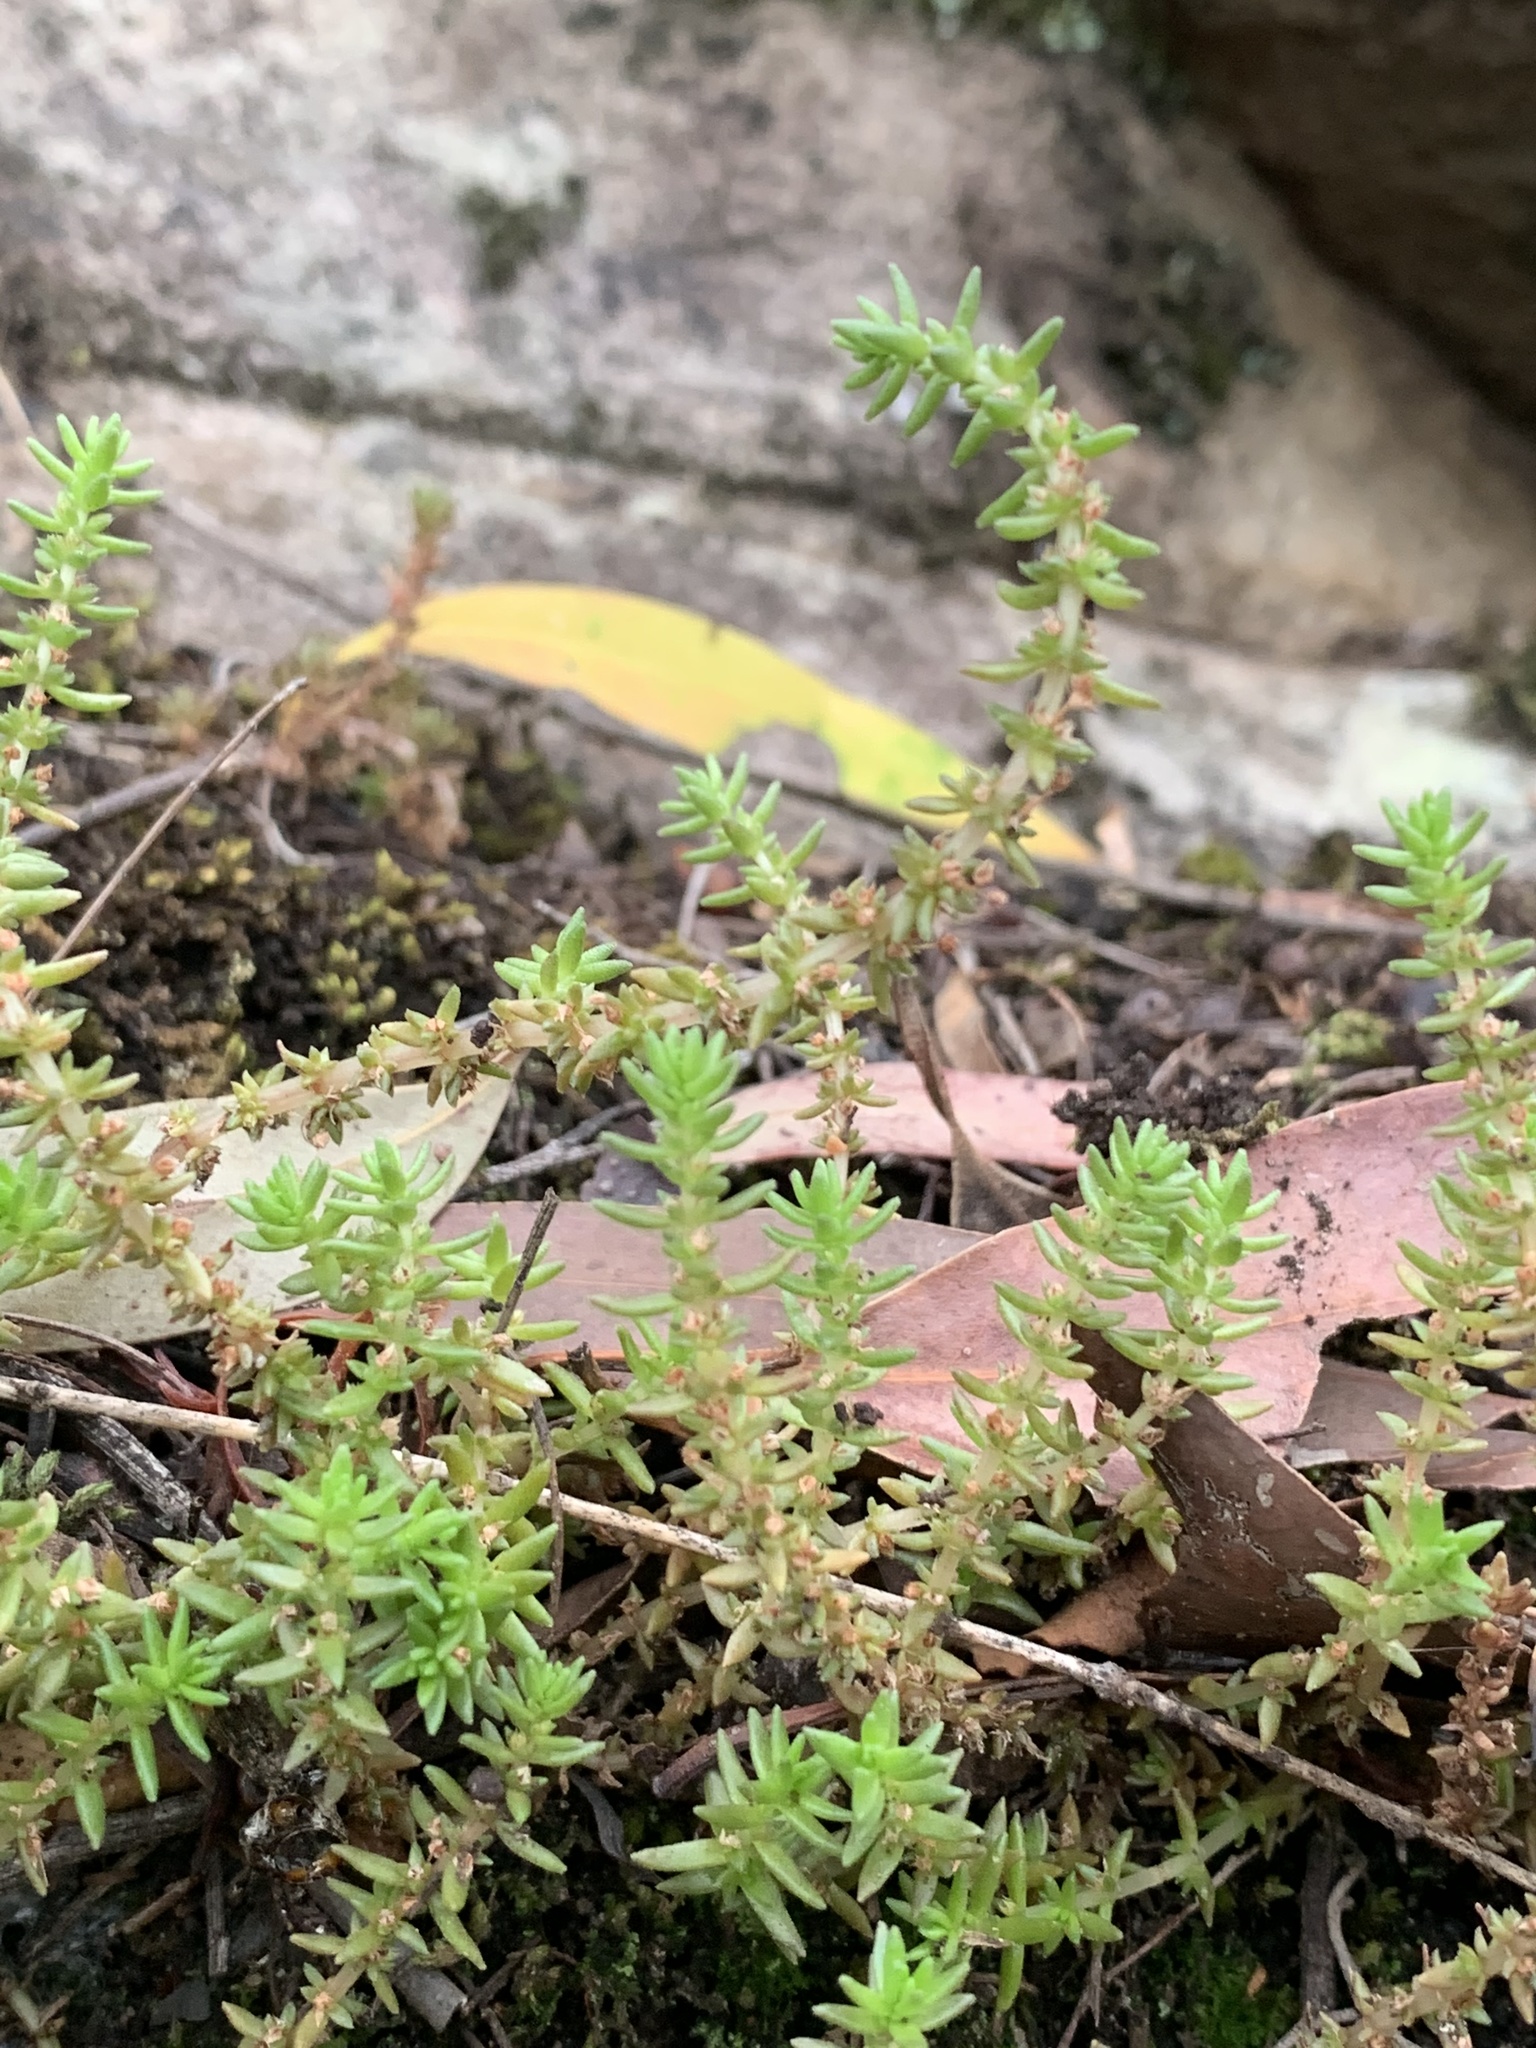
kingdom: Plantae
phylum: Tracheophyta
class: Magnoliopsida
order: Saxifragales
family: Crassulaceae
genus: Crassula
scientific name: Crassula sieberiana
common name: Siberian pygmyweed
